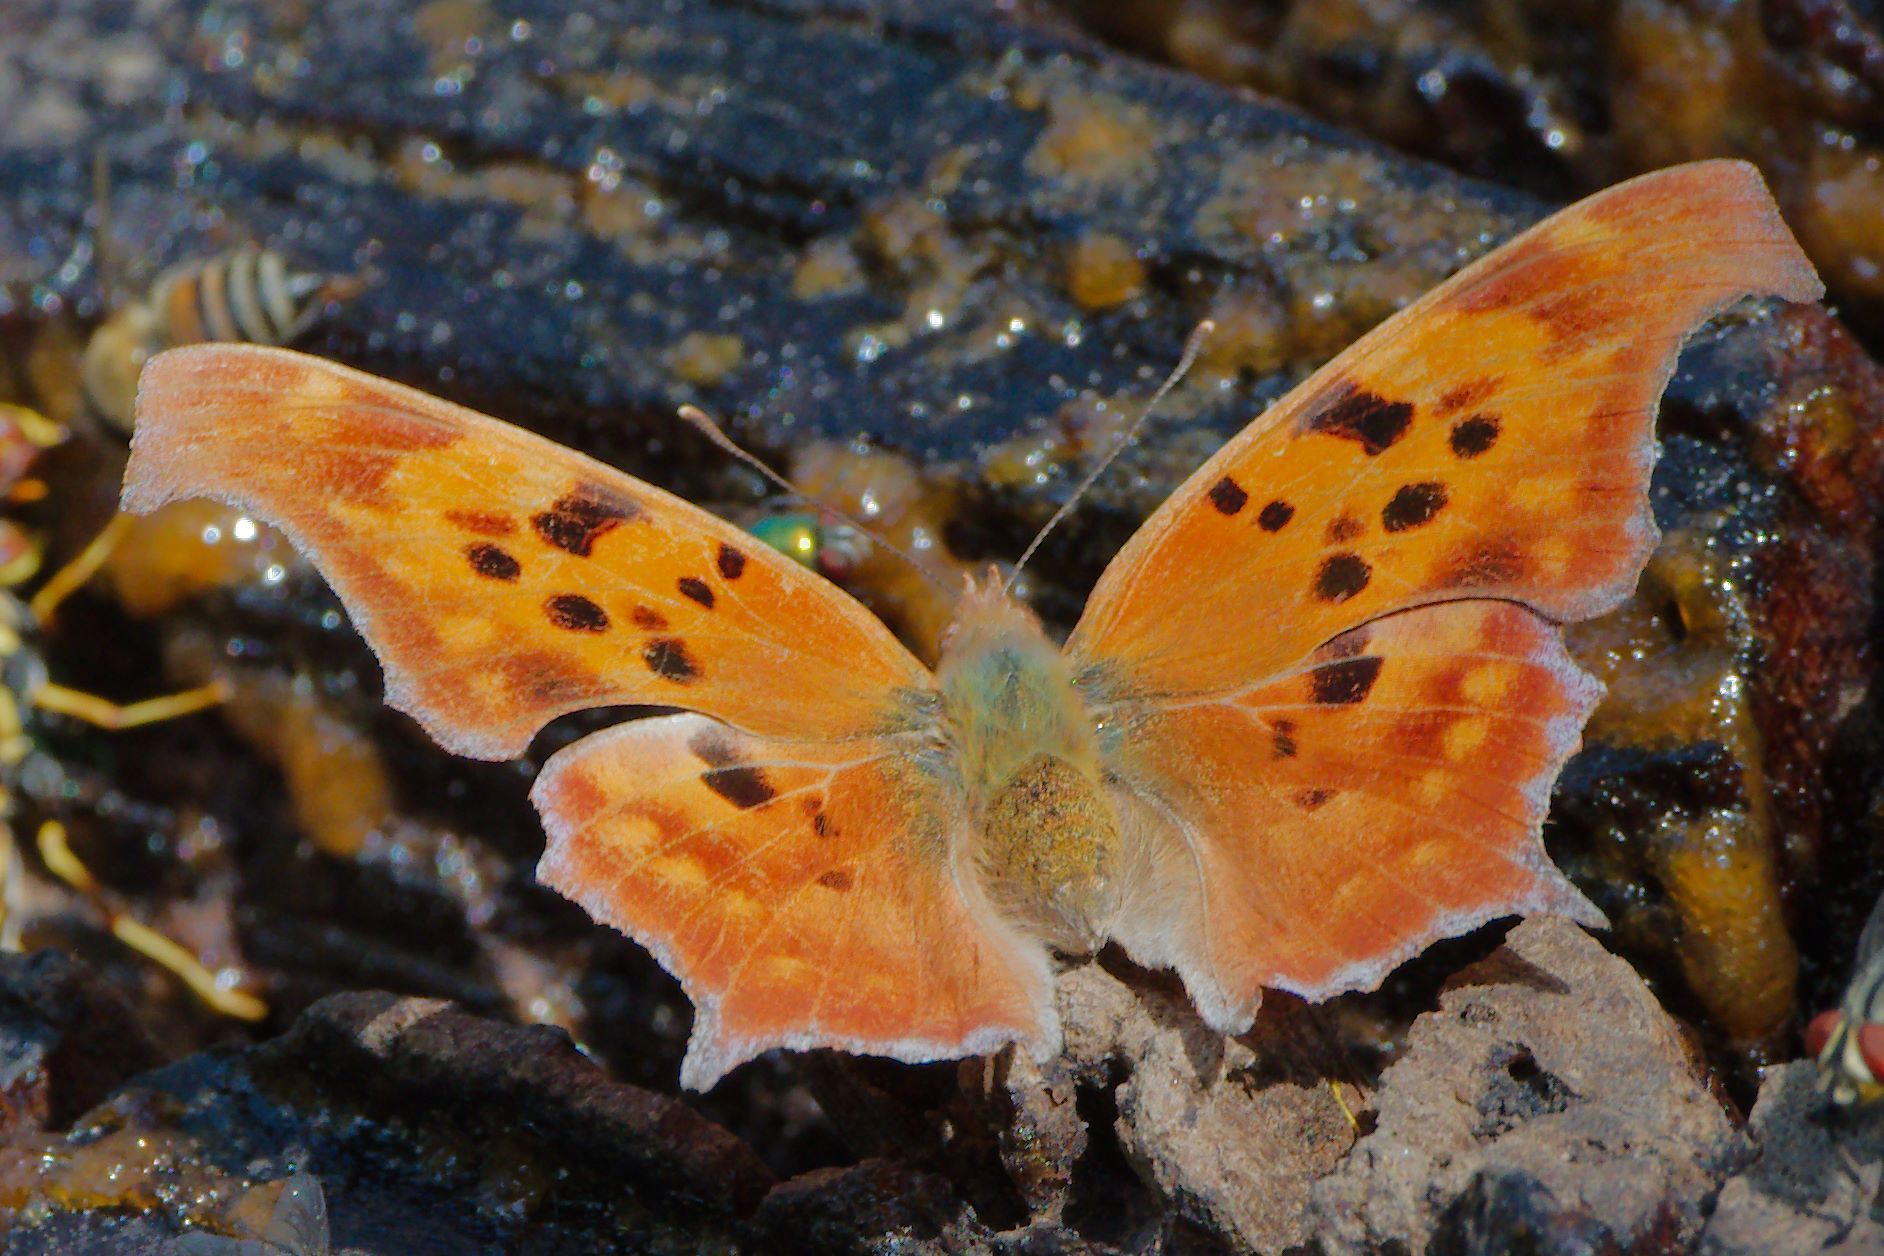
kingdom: Animalia
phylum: Arthropoda
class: Insecta
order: Lepidoptera
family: Nymphalidae
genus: Polygonia
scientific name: Polygonia interrogationis
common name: Question mark
